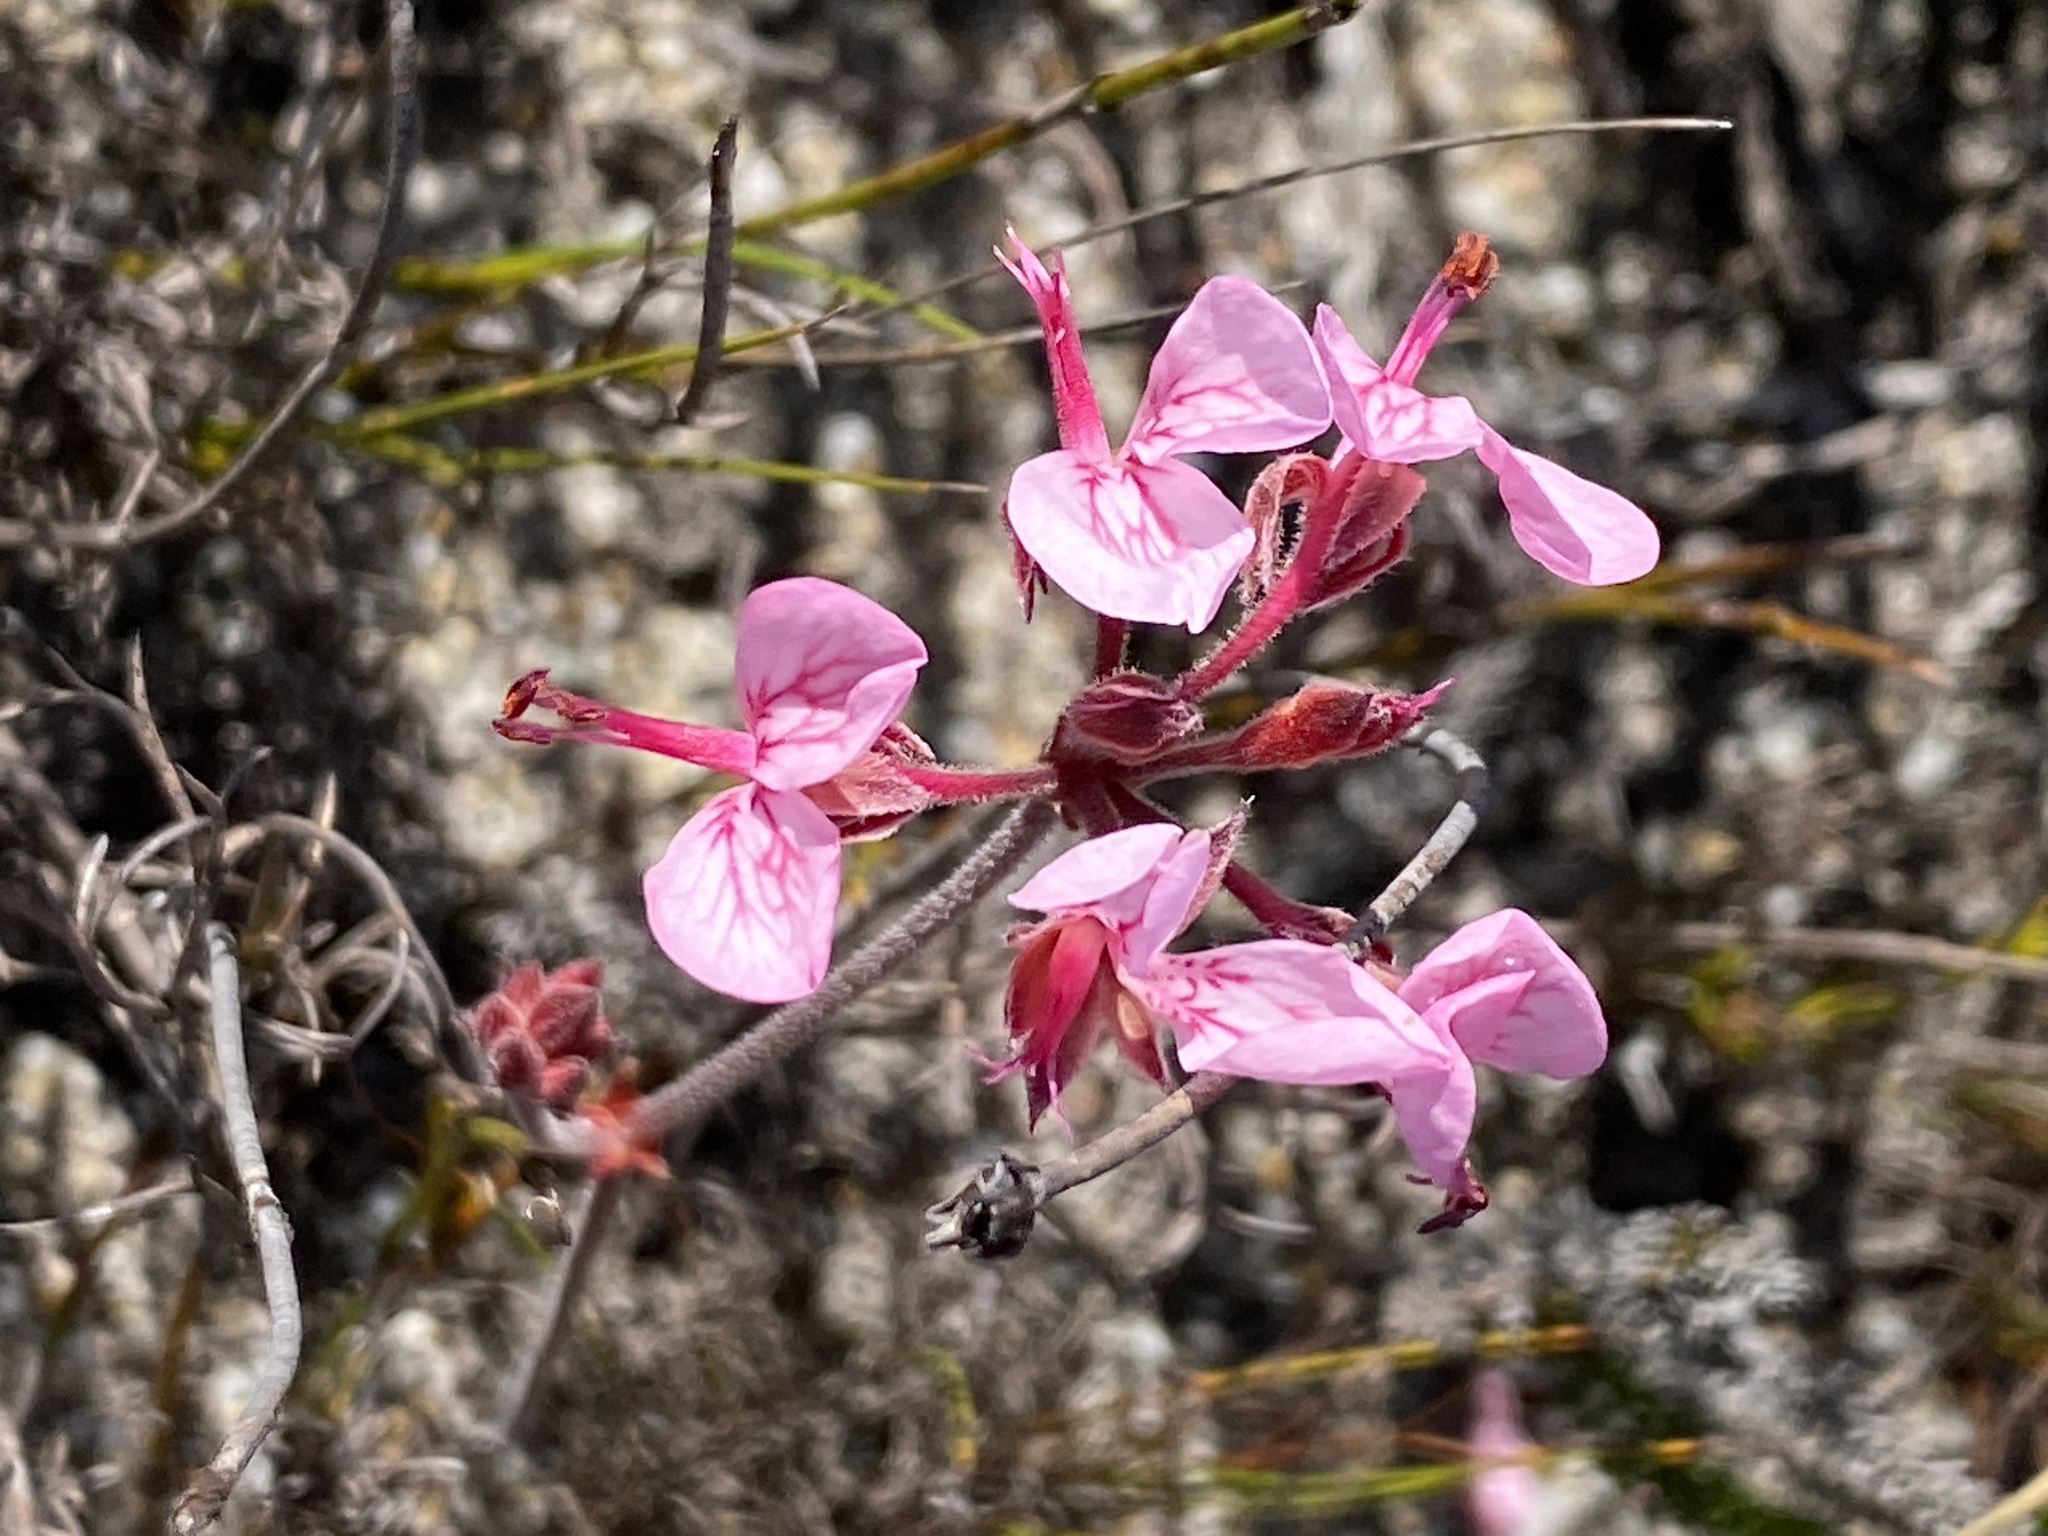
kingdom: Plantae
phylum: Tracheophyta
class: Magnoliopsida
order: Geraniales
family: Geraniaceae
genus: Pelargonium
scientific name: Pelargonium dipetalum
